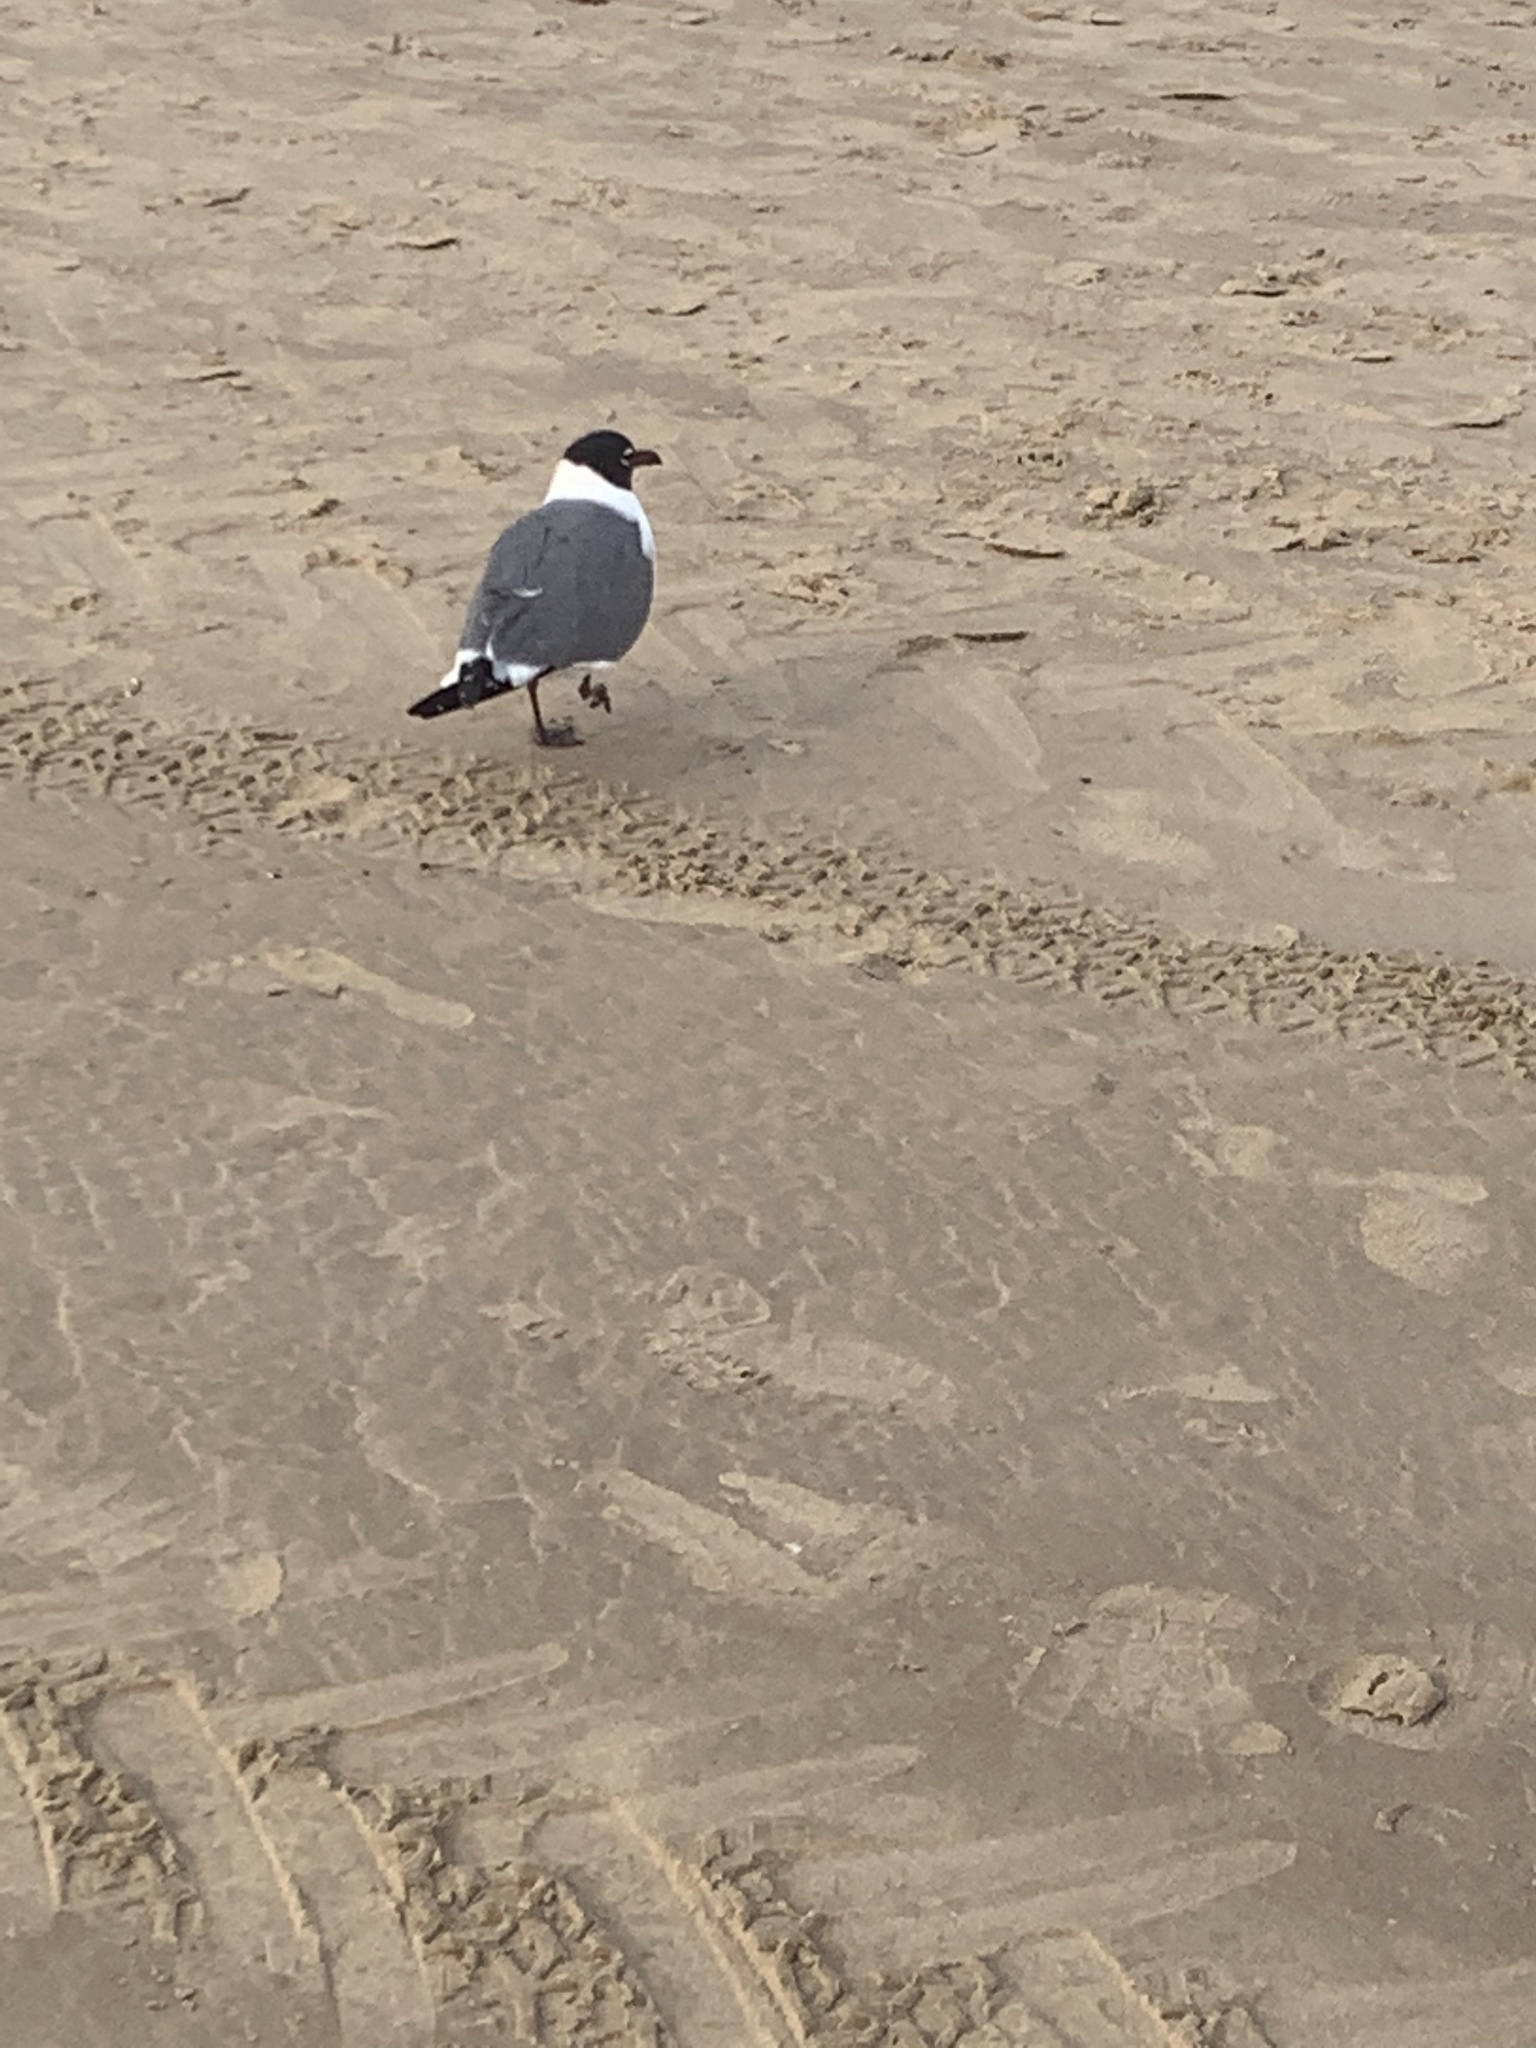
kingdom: Animalia
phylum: Chordata
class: Aves
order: Charadriiformes
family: Laridae
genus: Leucophaeus
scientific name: Leucophaeus atricilla
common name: Laughing gull
